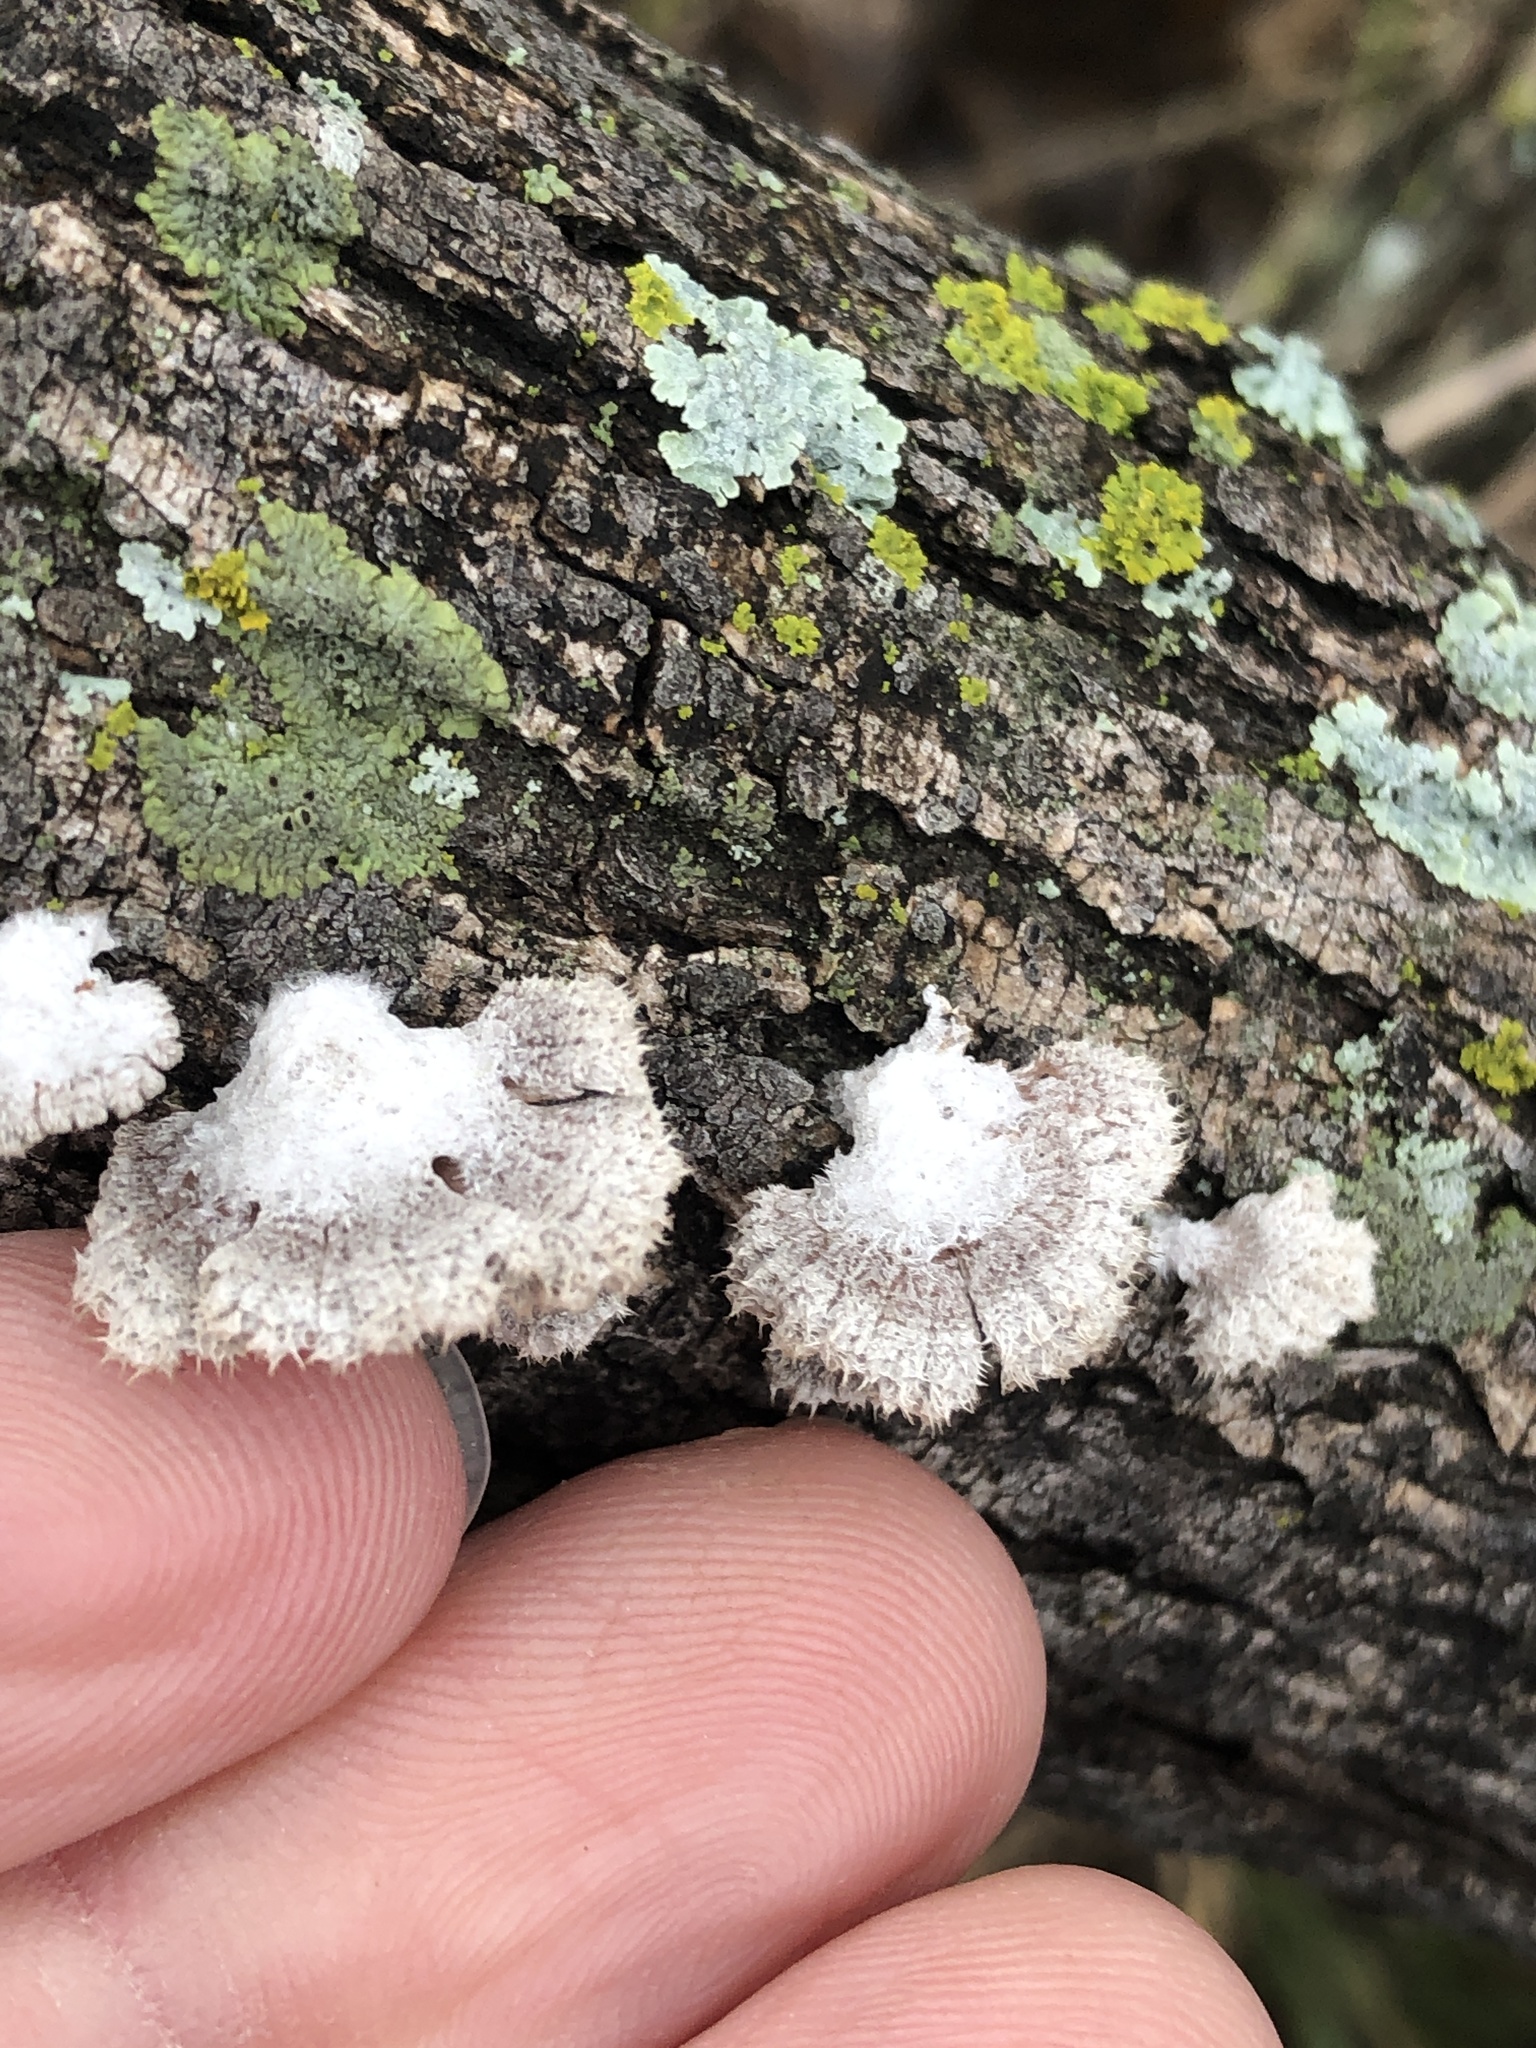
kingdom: Fungi
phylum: Basidiomycota
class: Agaricomycetes
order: Agaricales
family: Schizophyllaceae
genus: Schizophyllum
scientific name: Schizophyllum commune
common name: Common porecrust
